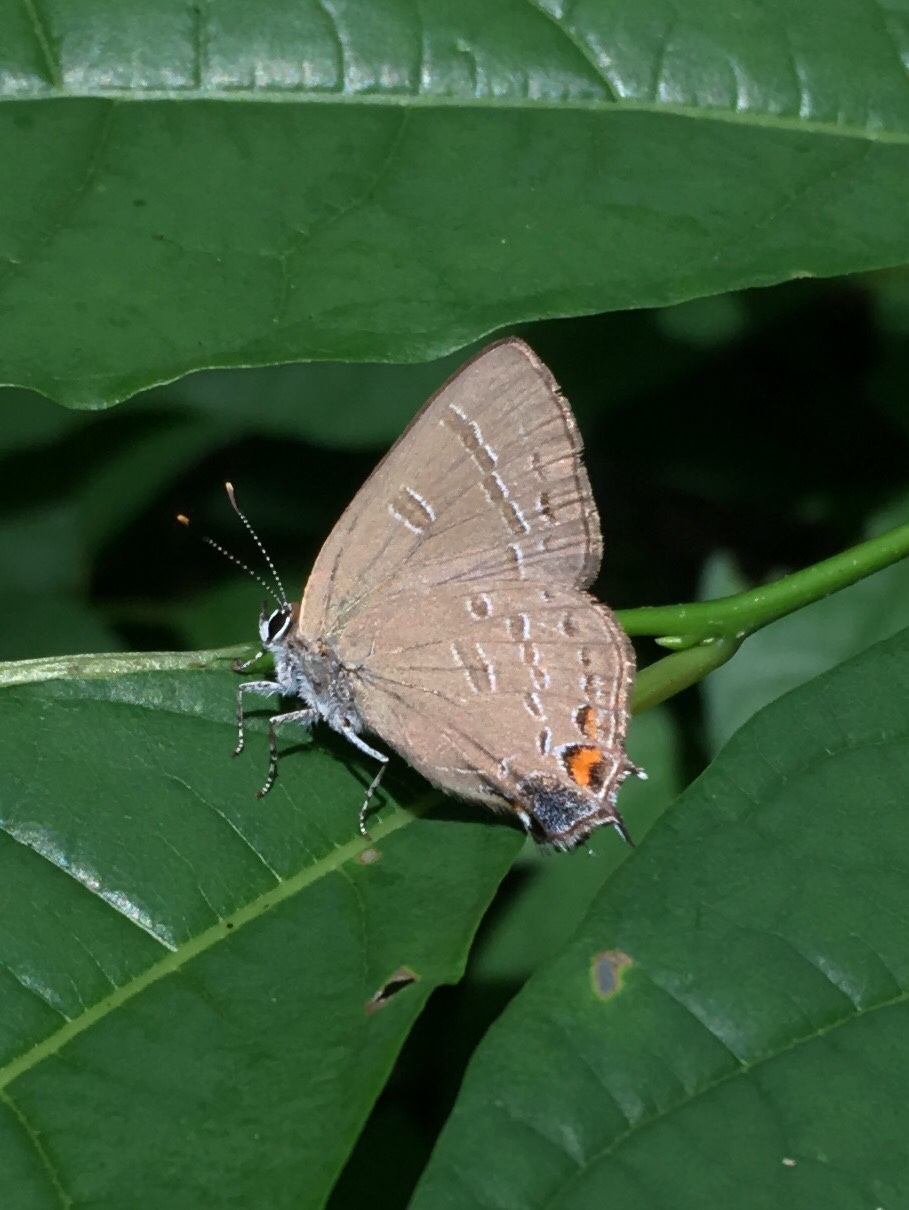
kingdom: Animalia
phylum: Arthropoda
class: Insecta
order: Lepidoptera
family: Lycaenidae
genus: Satyrium
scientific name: Satyrium calanus
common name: Banded hairstreak
